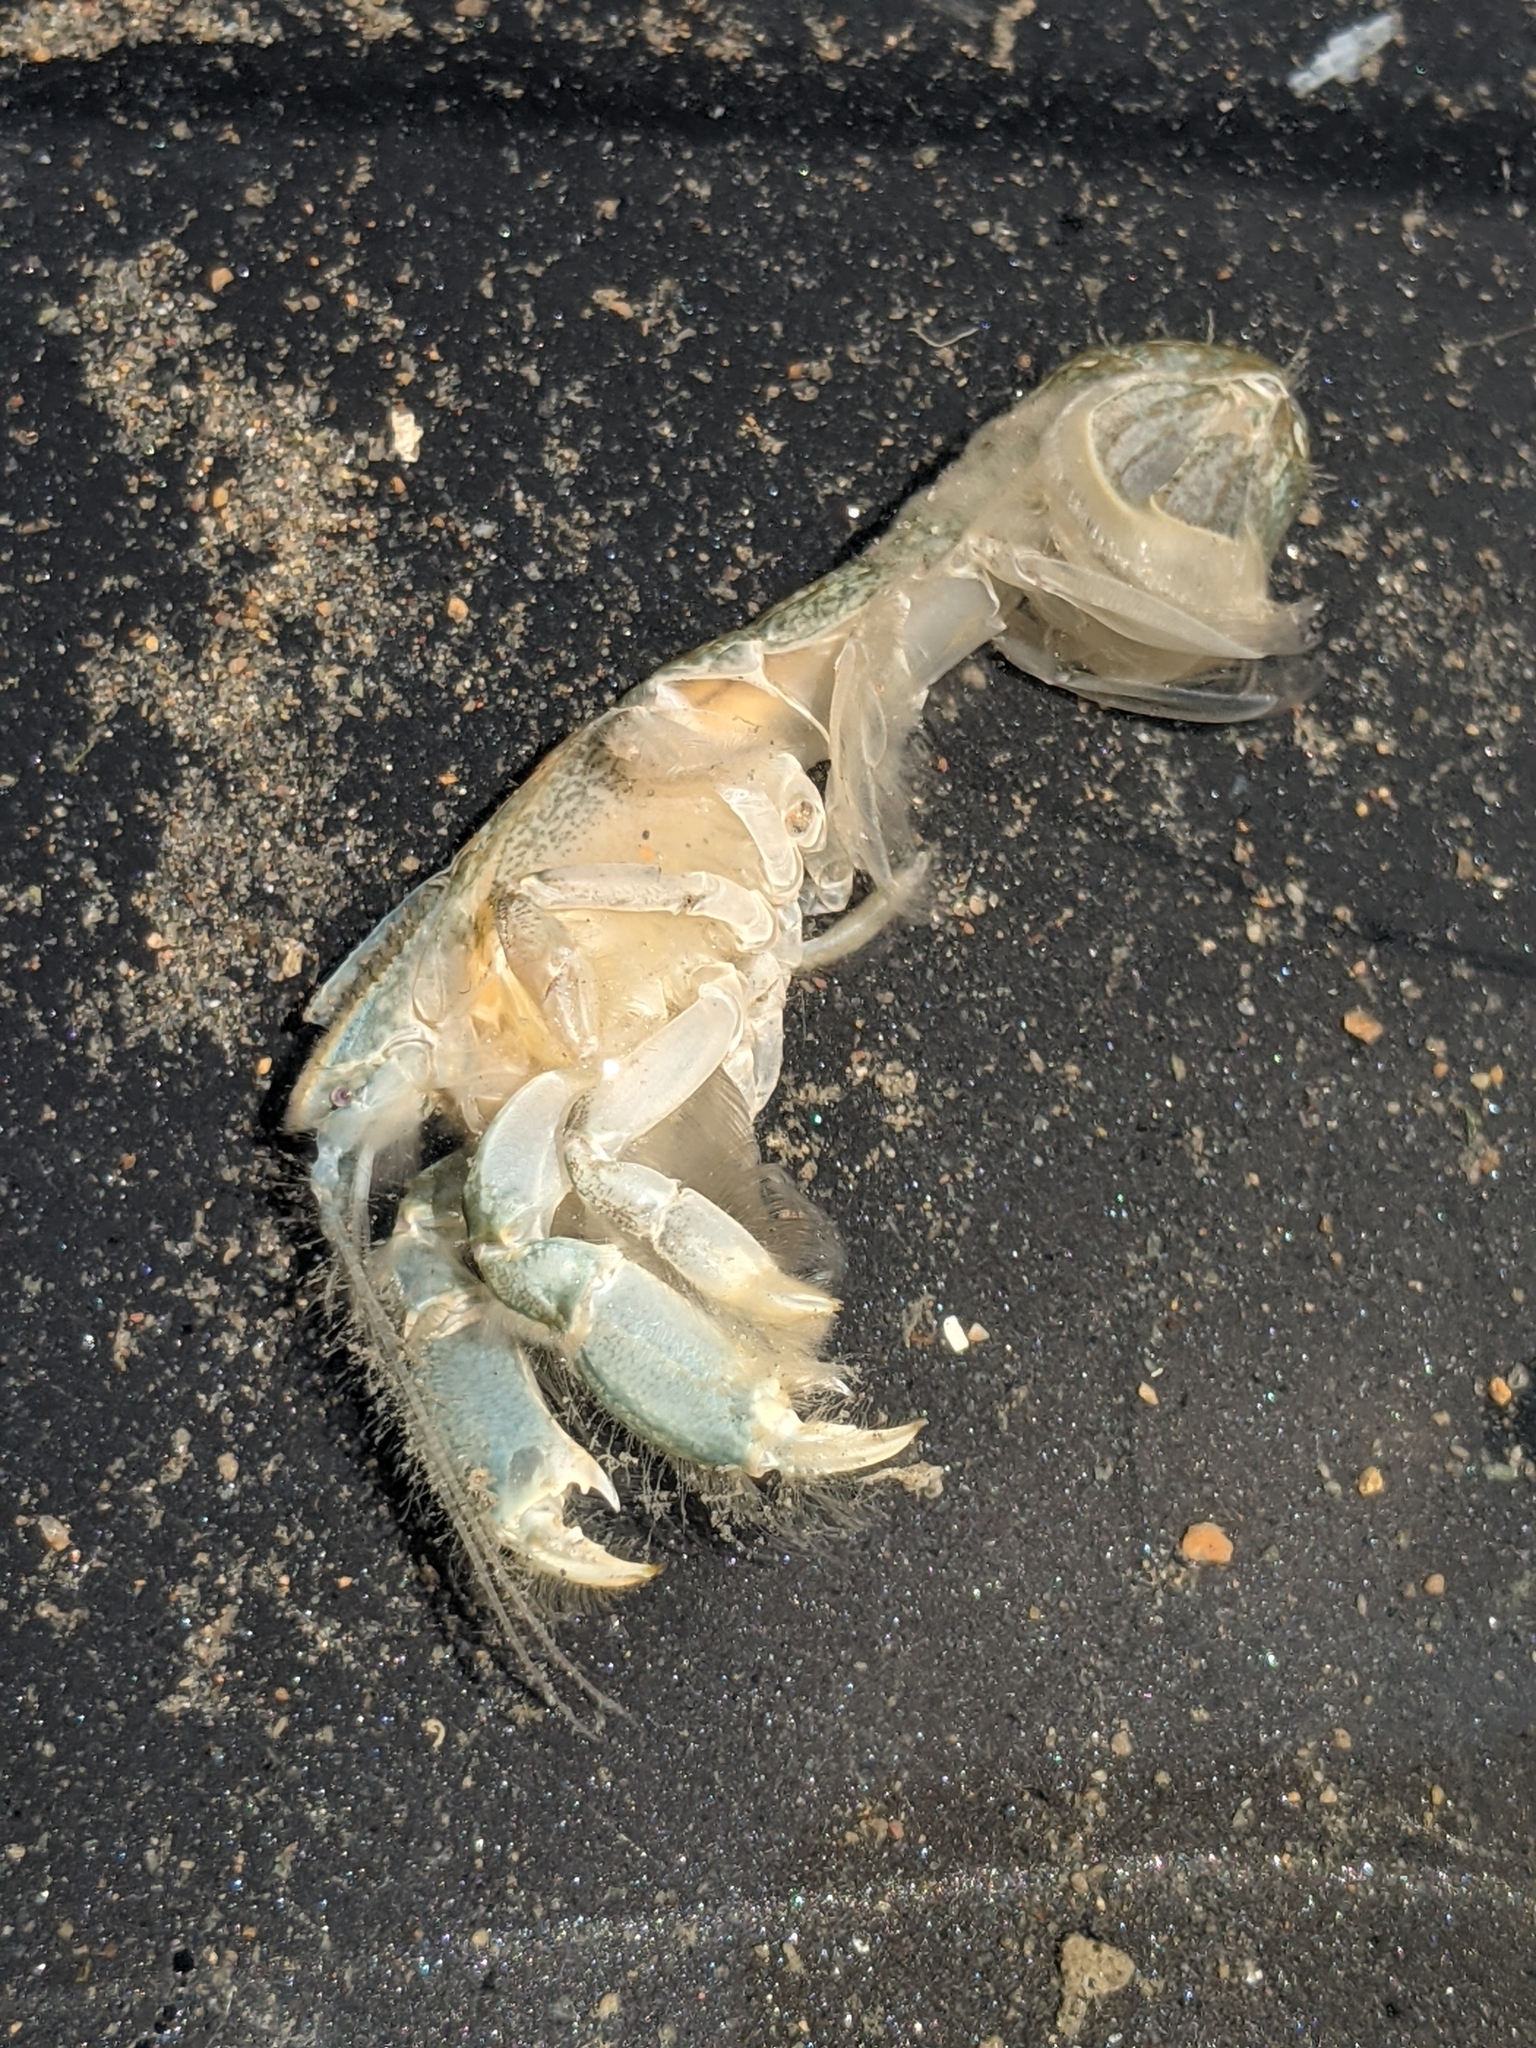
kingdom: Animalia
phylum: Arthropoda
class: Malacostraca
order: Decapoda
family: Upogebiidae
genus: Upogebia
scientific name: Upogebia pugettensis
